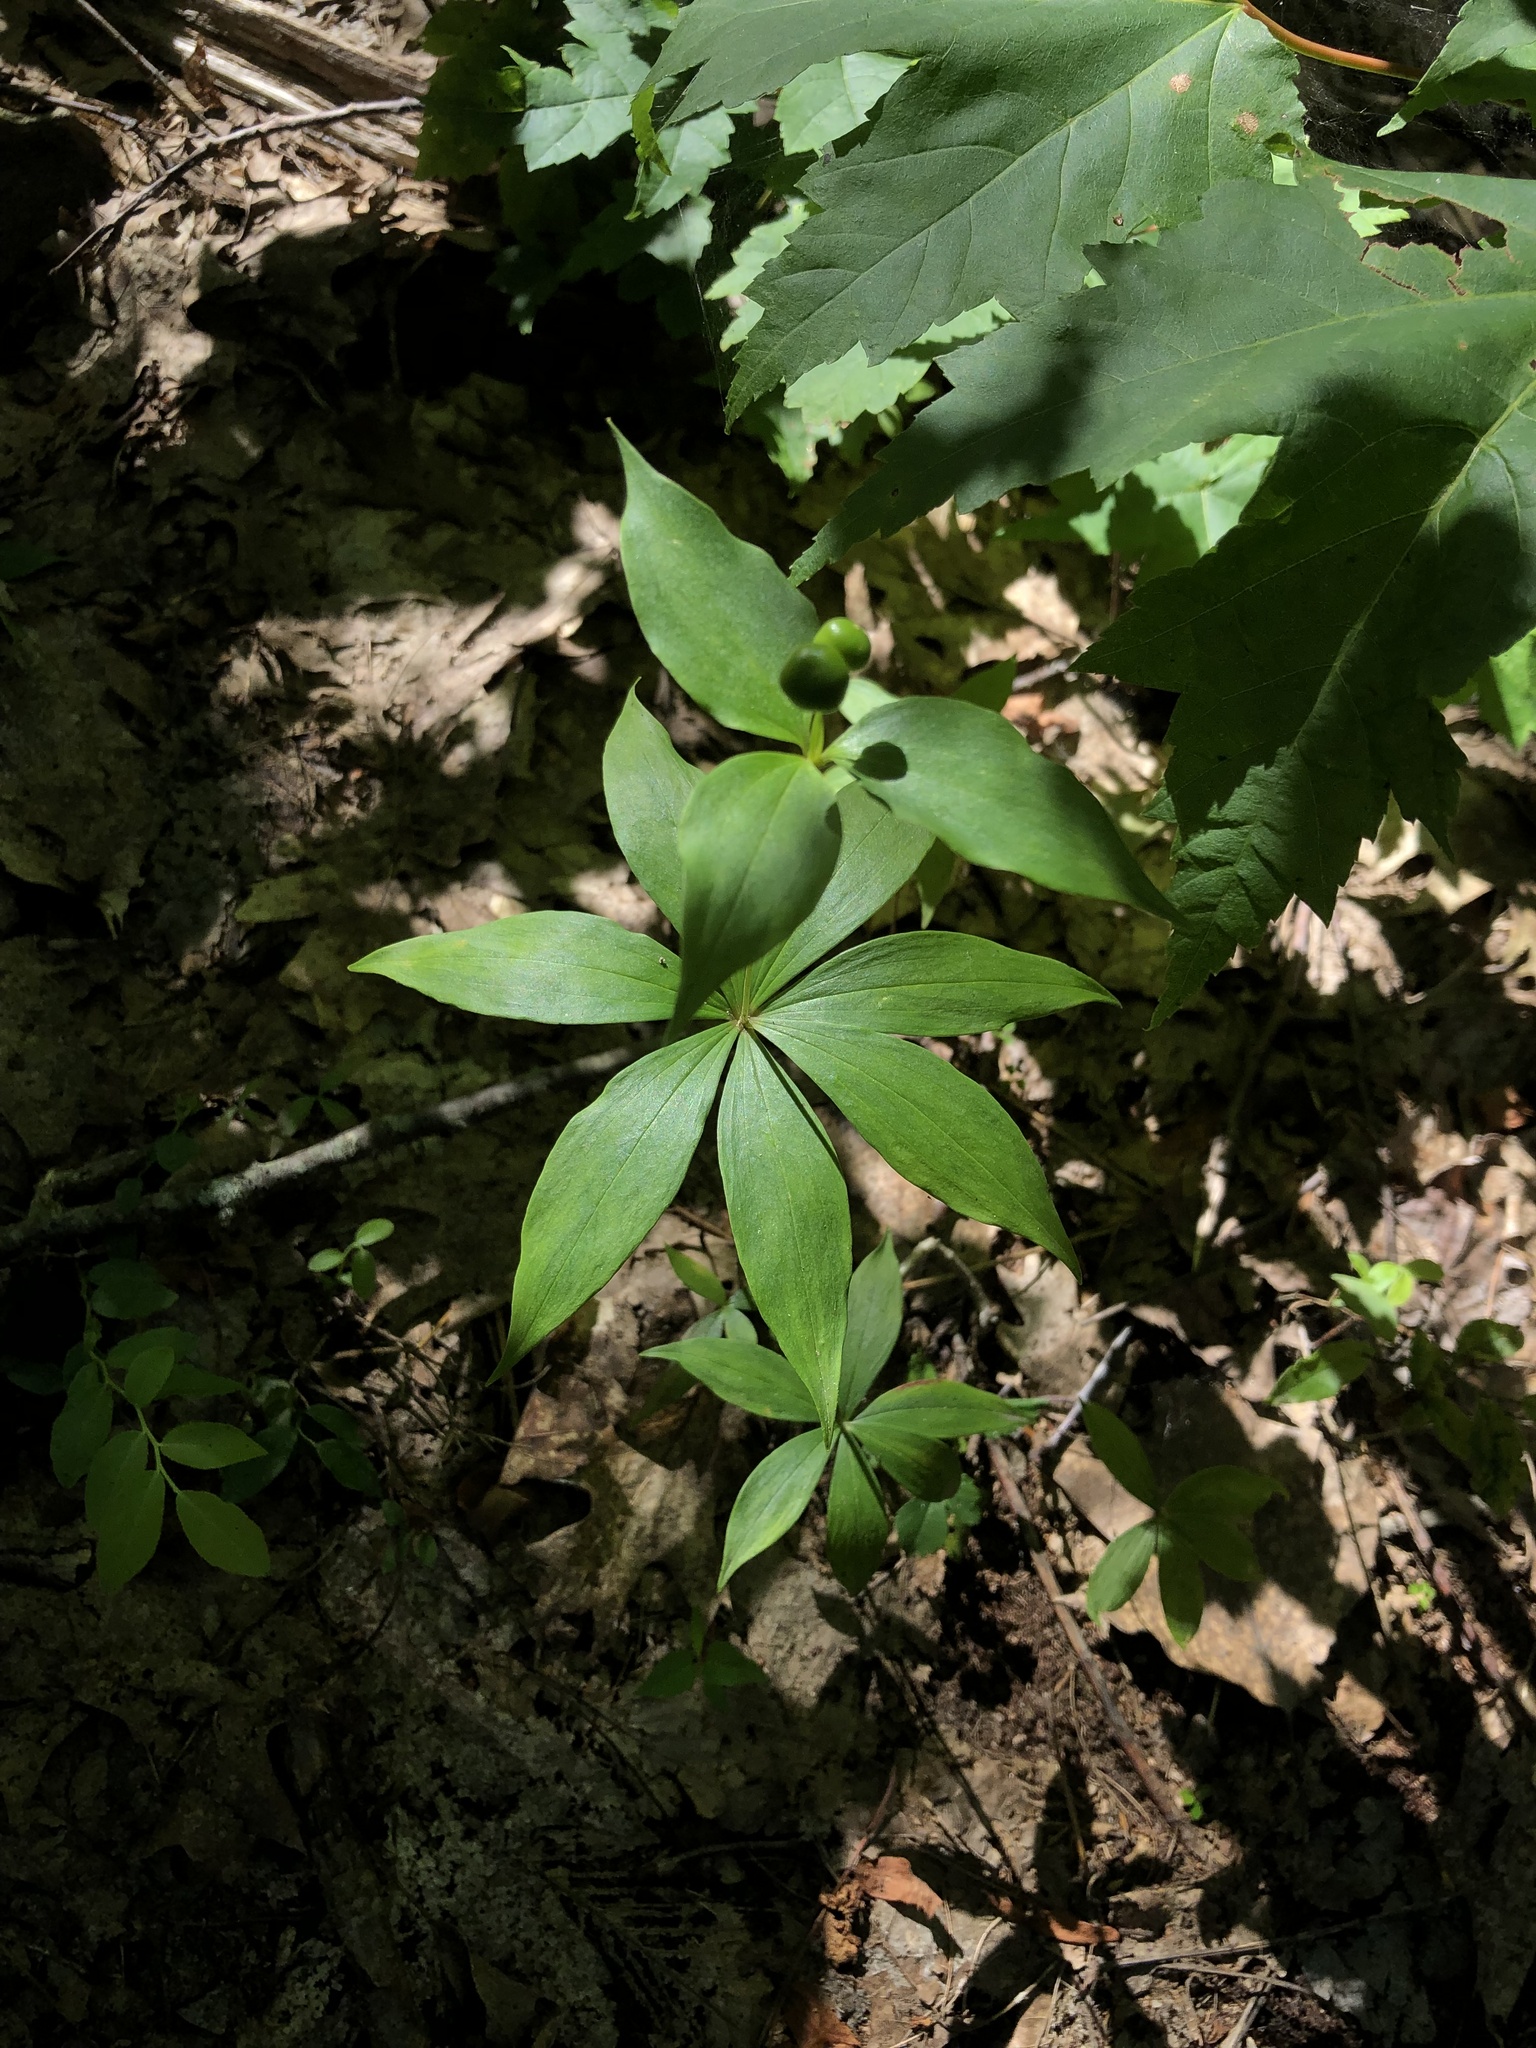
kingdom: Plantae
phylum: Tracheophyta
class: Liliopsida
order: Liliales
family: Liliaceae
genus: Medeola
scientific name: Medeola virginiana
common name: Indian cucumber-root
